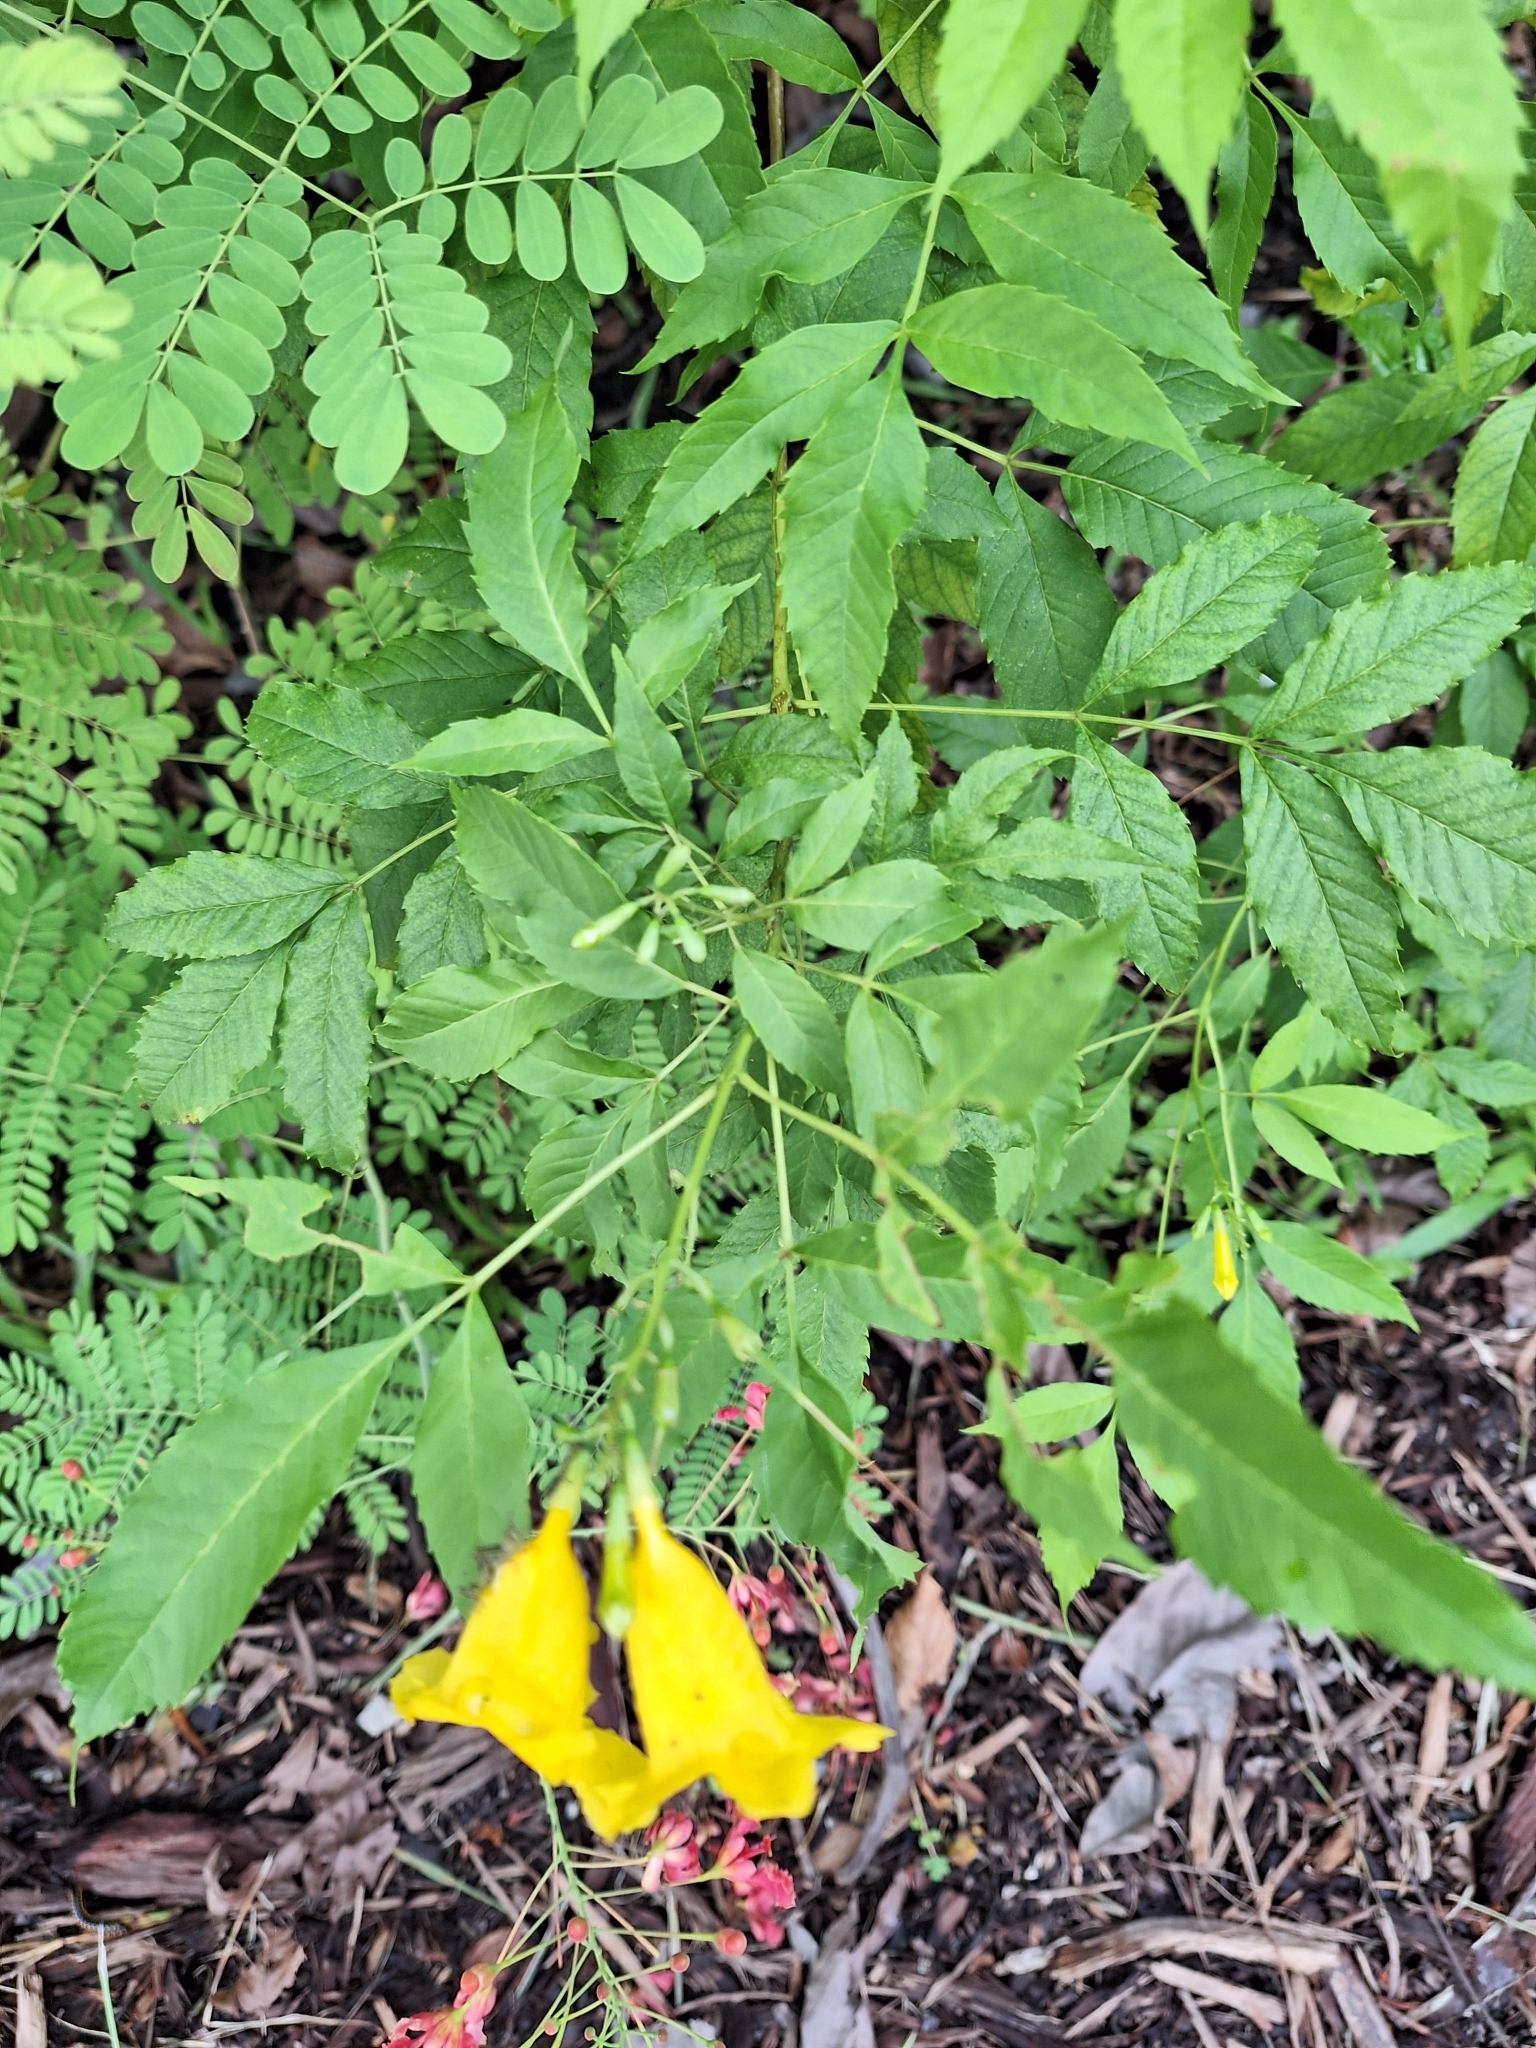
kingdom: Plantae
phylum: Tracheophyta
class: Magnoliopsida
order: Lamiales
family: Bignoniaceae
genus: Tecoma
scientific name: Tecoma stans
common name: Yellow trumpetbush
